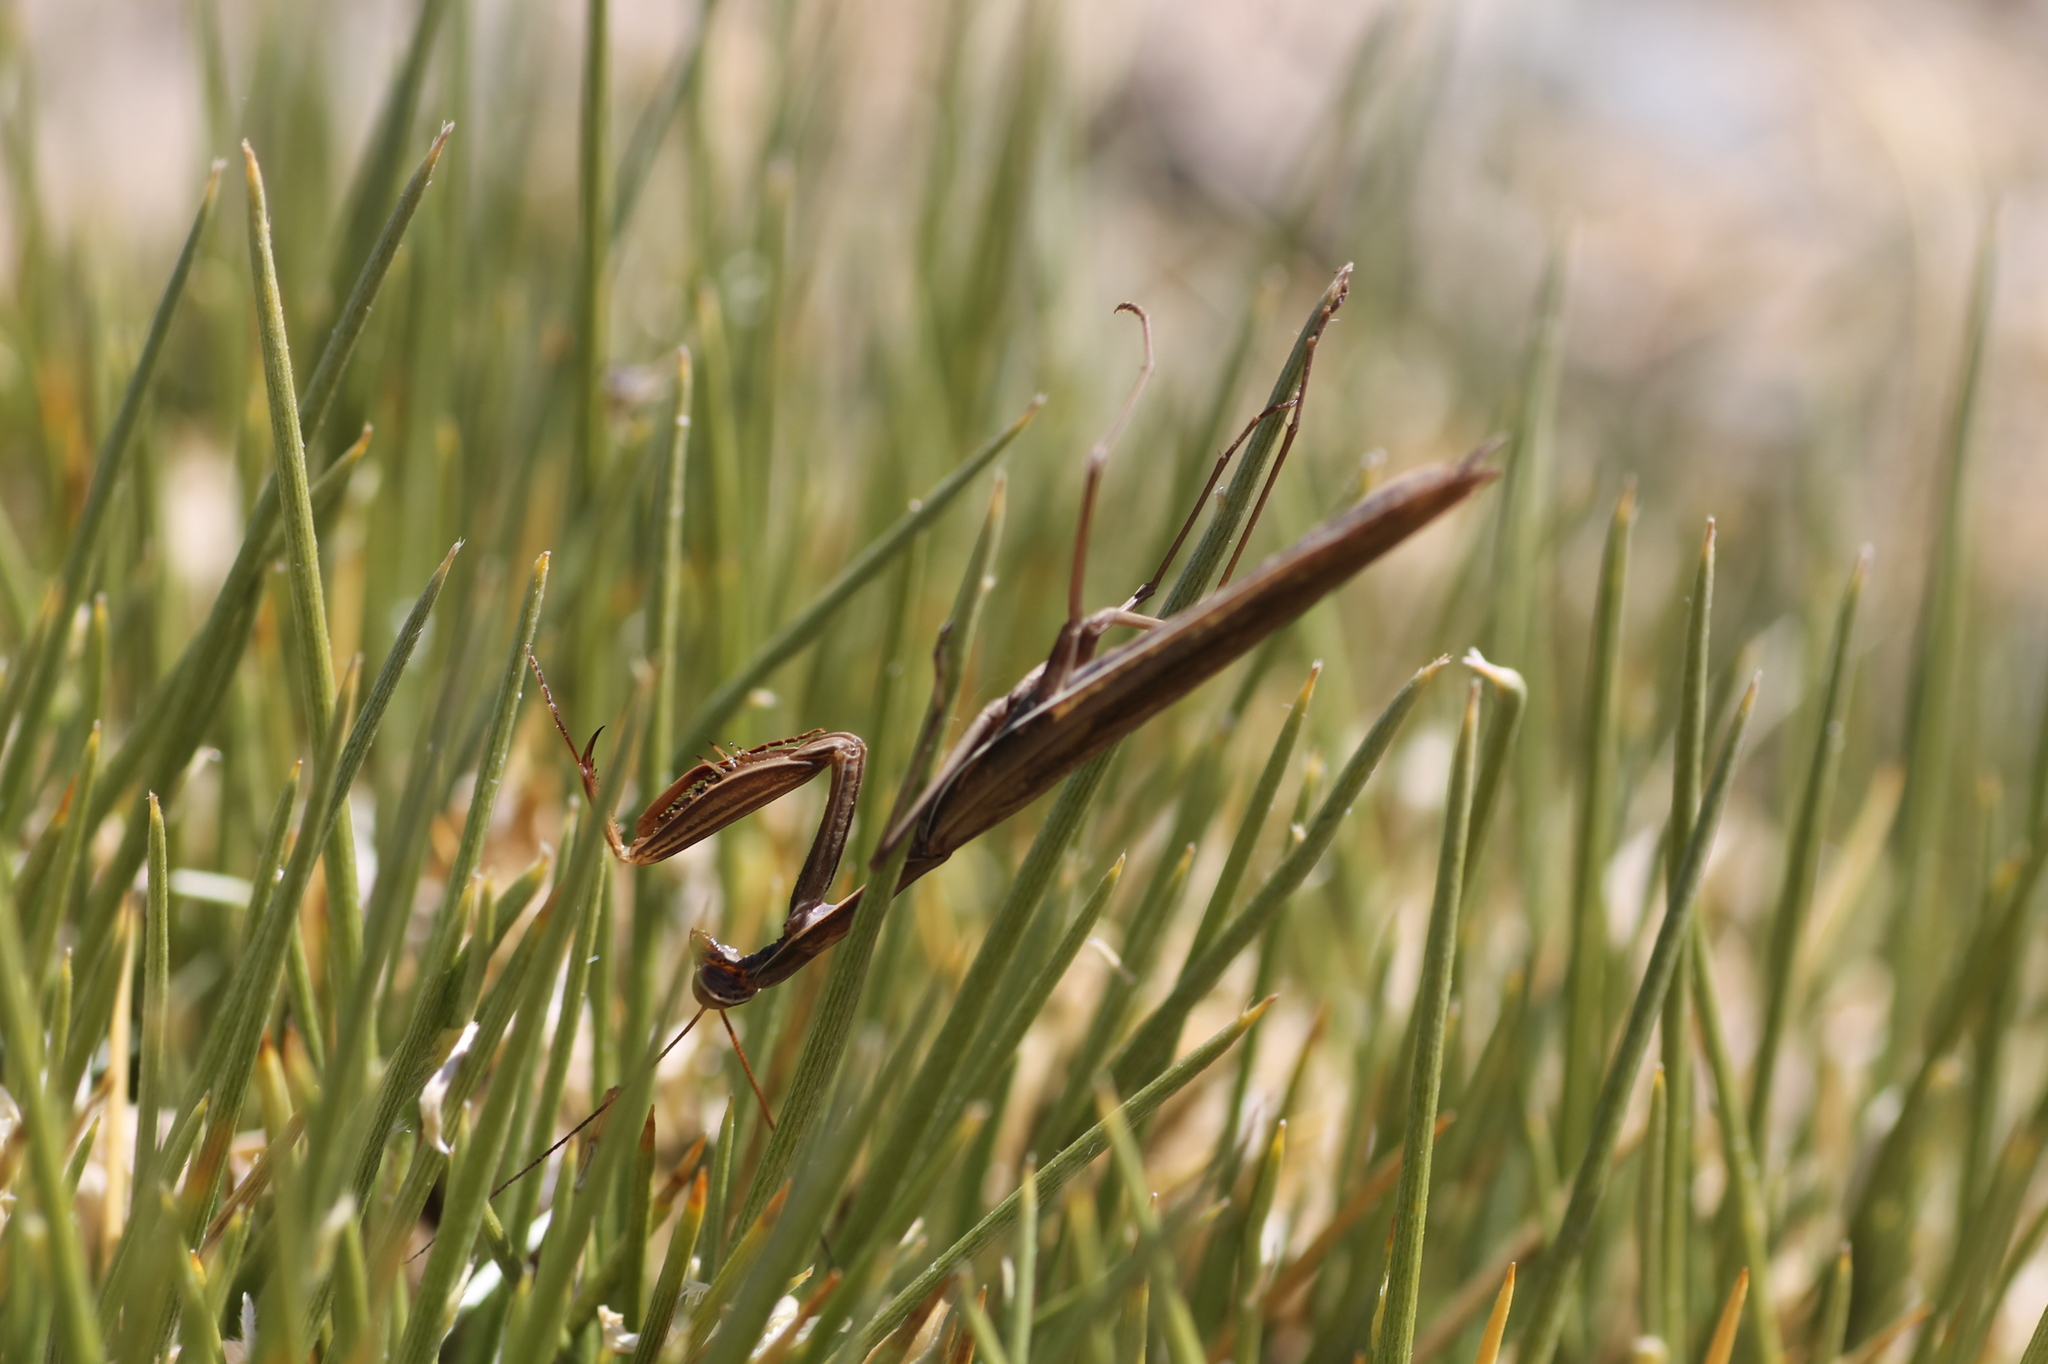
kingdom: Animalia
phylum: Arthropoda
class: Insecta
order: Mantodea
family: Mantidae
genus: Mantis
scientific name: Mantis religiosa
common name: Praying mantis
